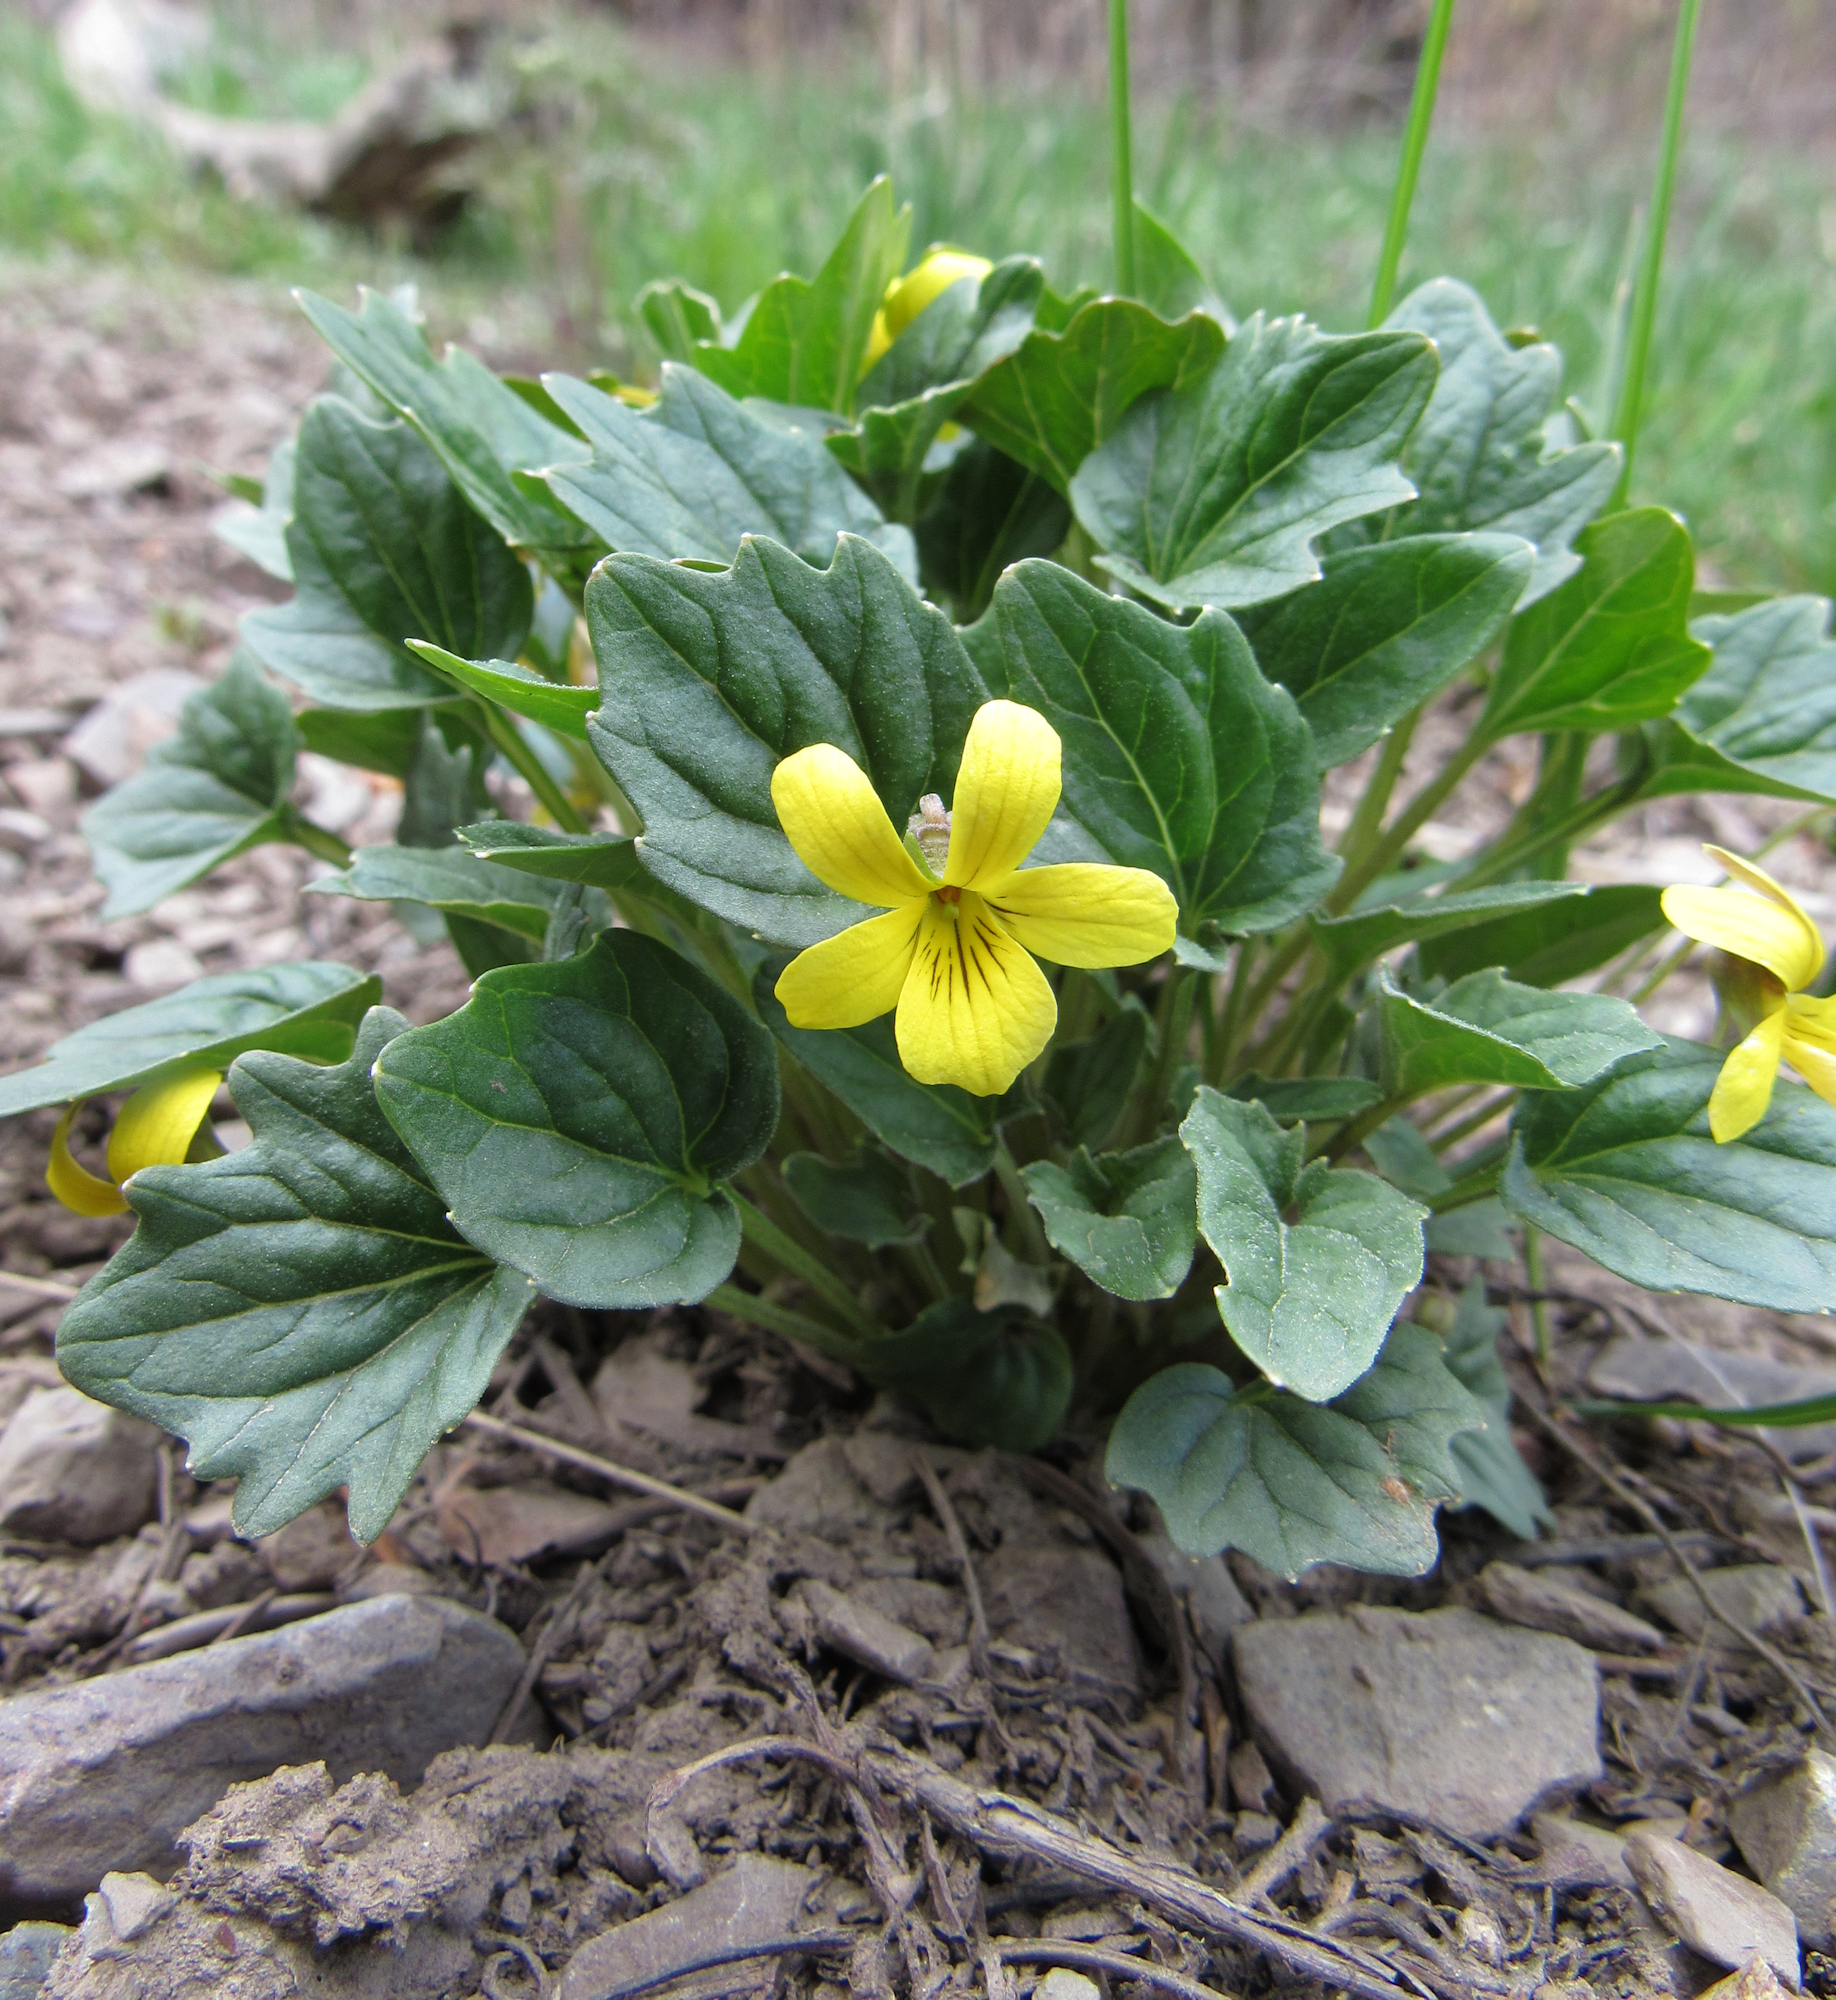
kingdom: Plantae
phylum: Tracheophyta
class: Magnoliopsida
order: Malpighiales
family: Violaceae
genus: Viola
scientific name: Viola purpurea
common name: Pine violet
